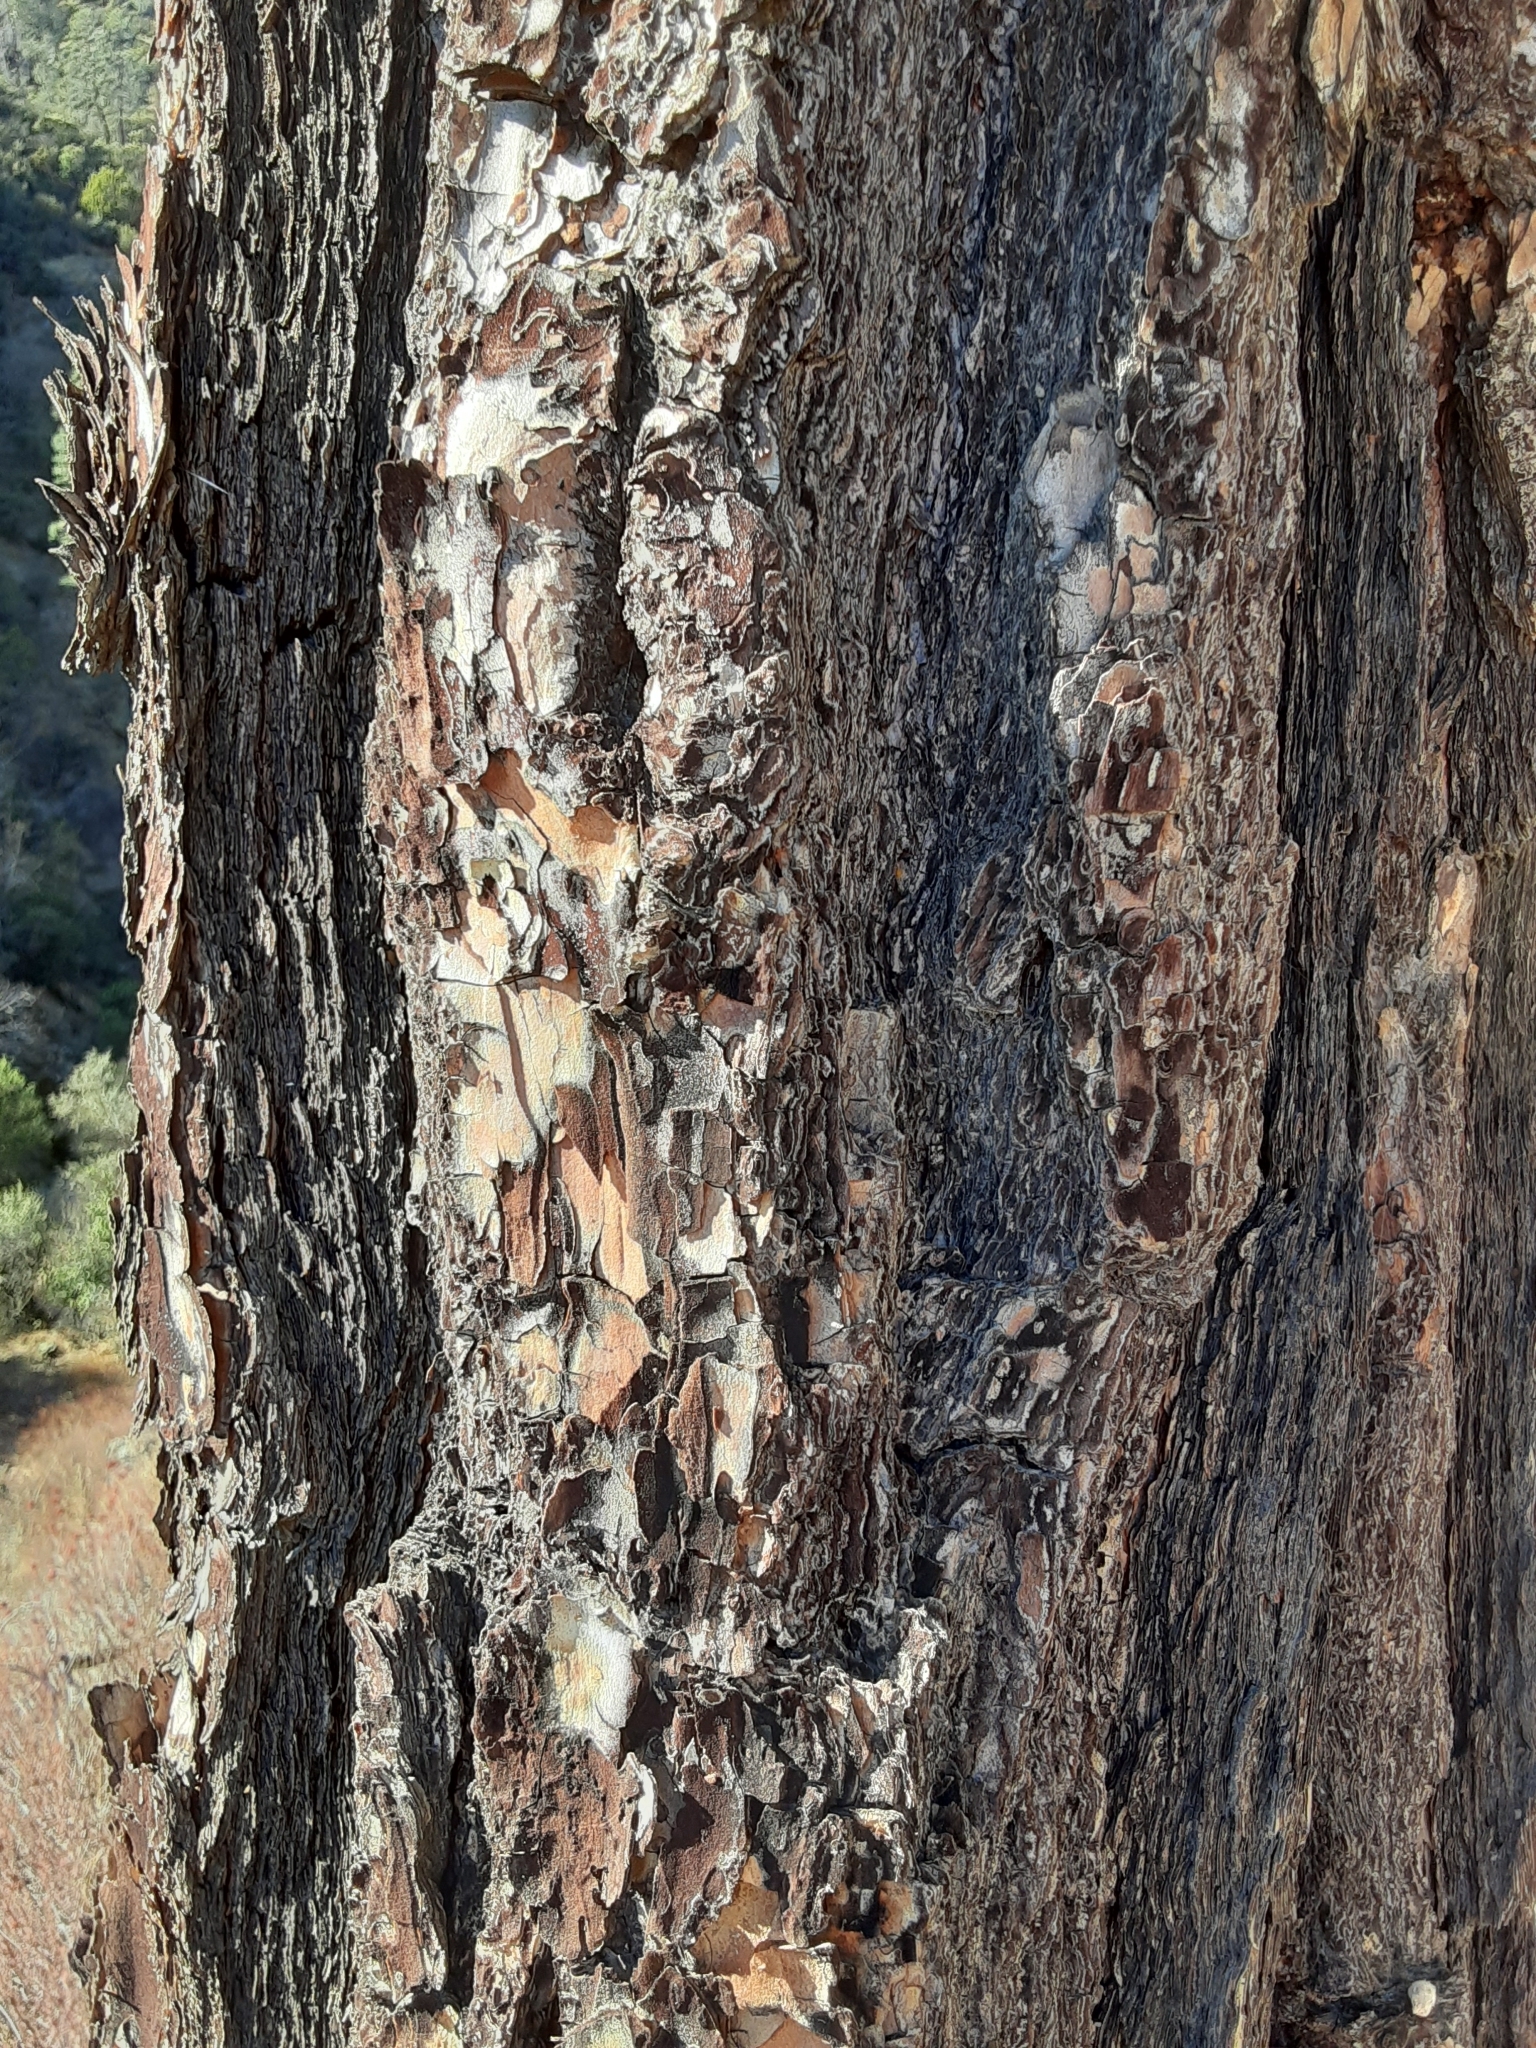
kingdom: Plantae
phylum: Tracheophyta
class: Pinopsida
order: Pinales
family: Pinaceae
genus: Pinus
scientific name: Pinus sabiniana
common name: Bull pine
